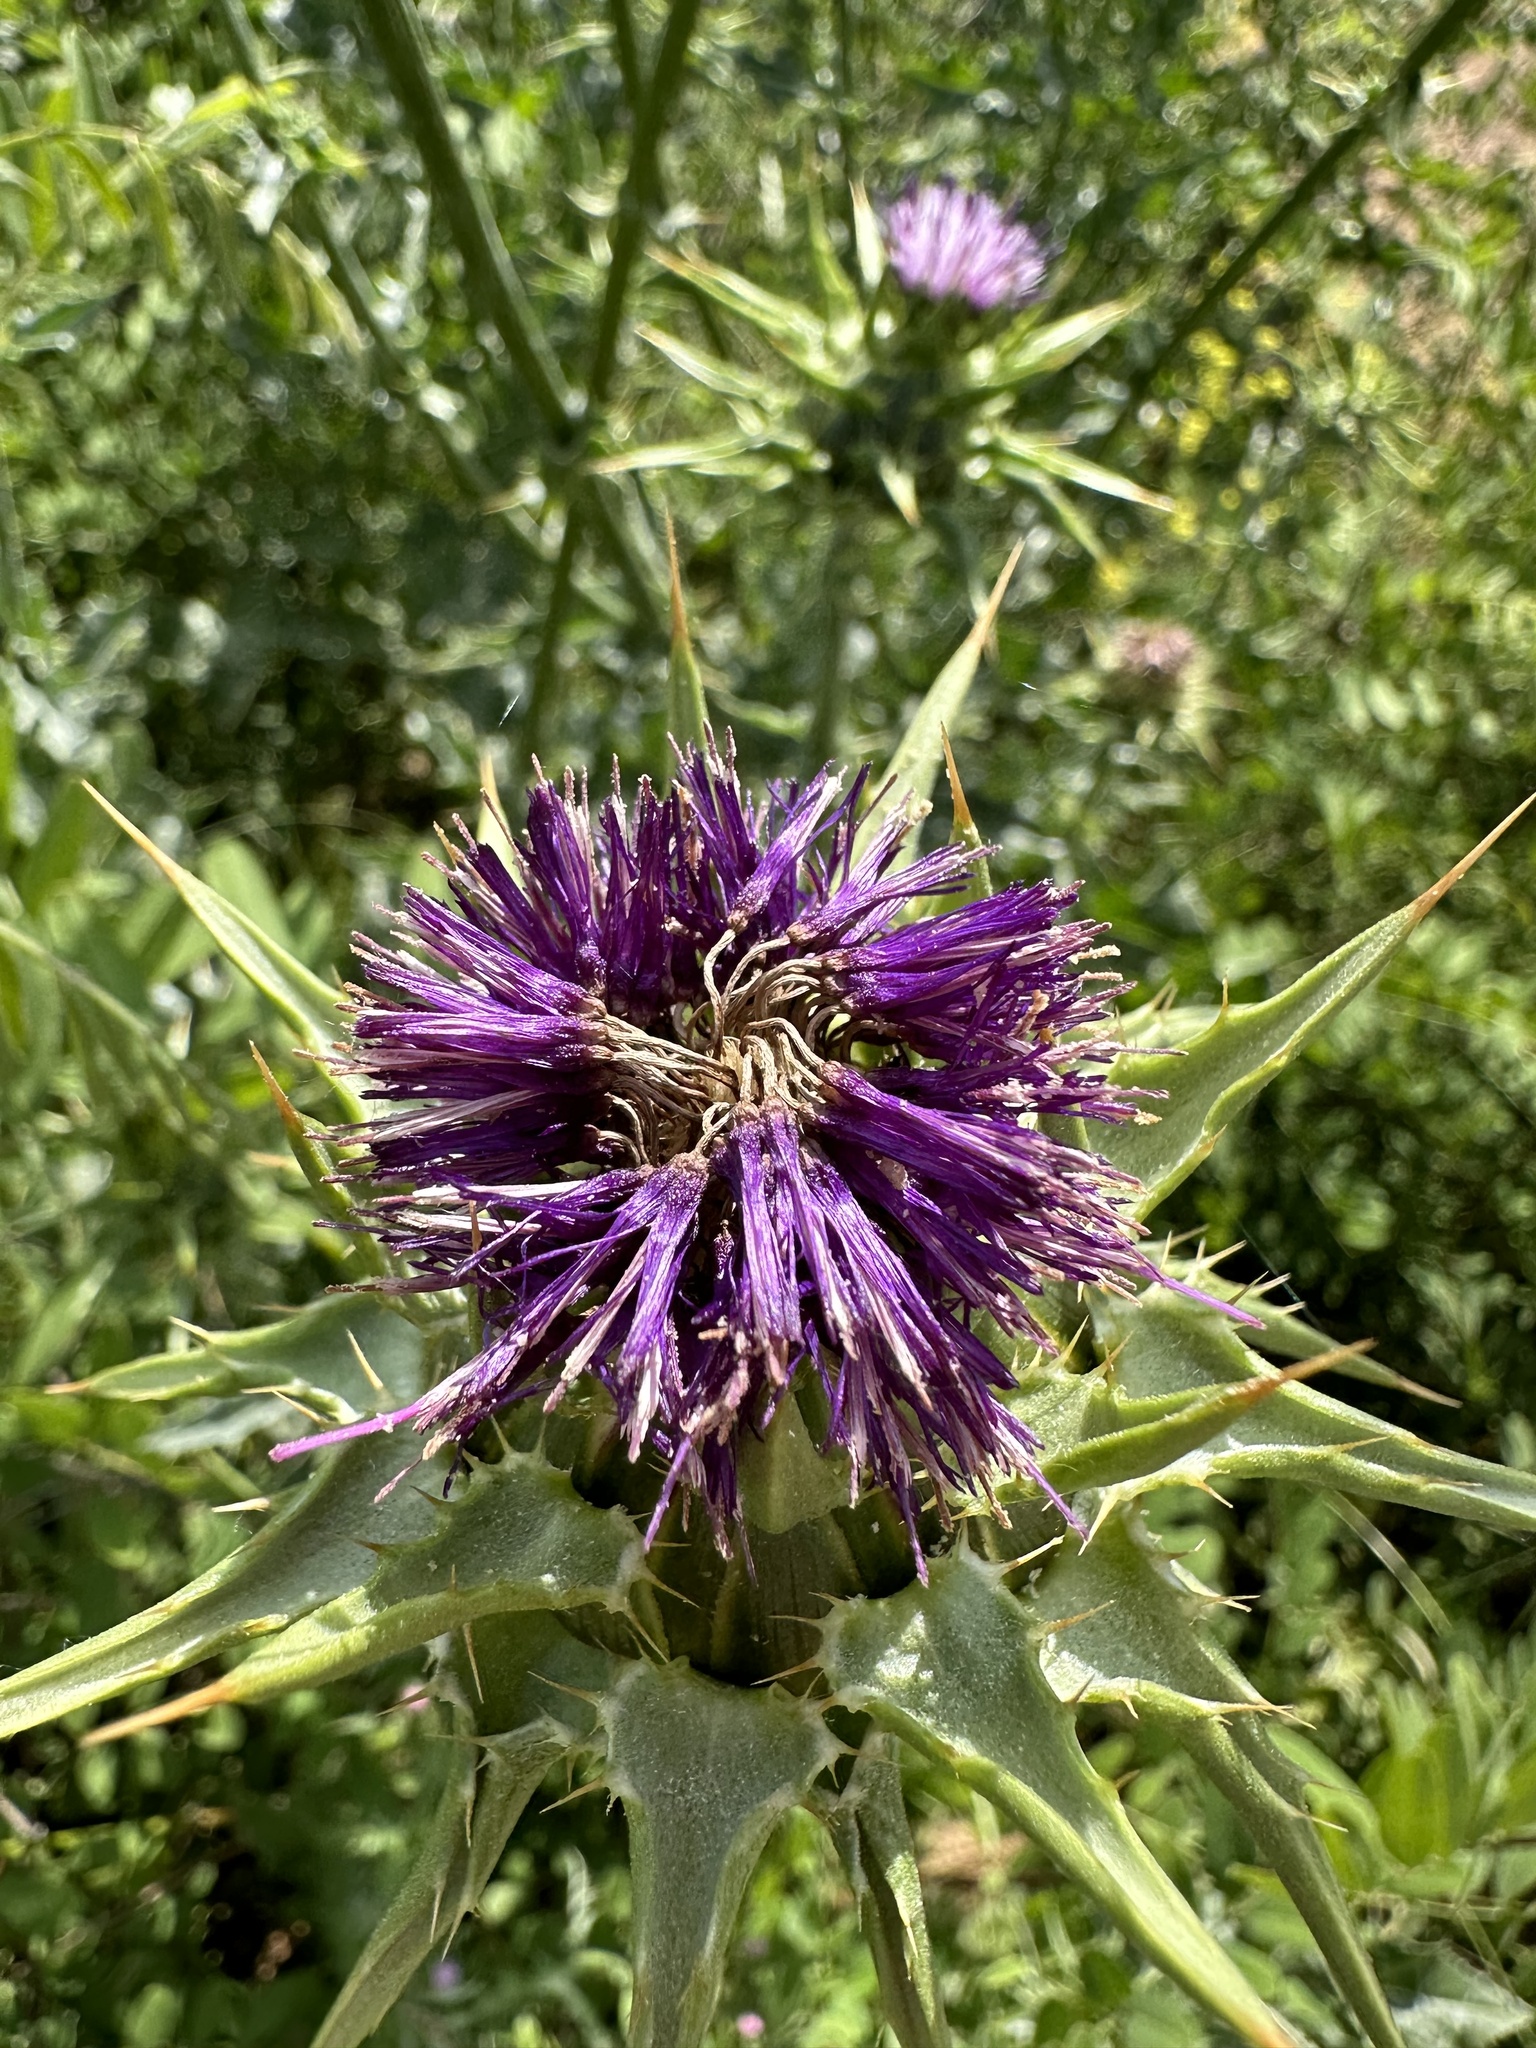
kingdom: Plantae
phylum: Tracheophyta
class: Magnoliopsida
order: Asterales
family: Asteraceae
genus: Silybum
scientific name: Silybum marianum
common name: Milk thistle
